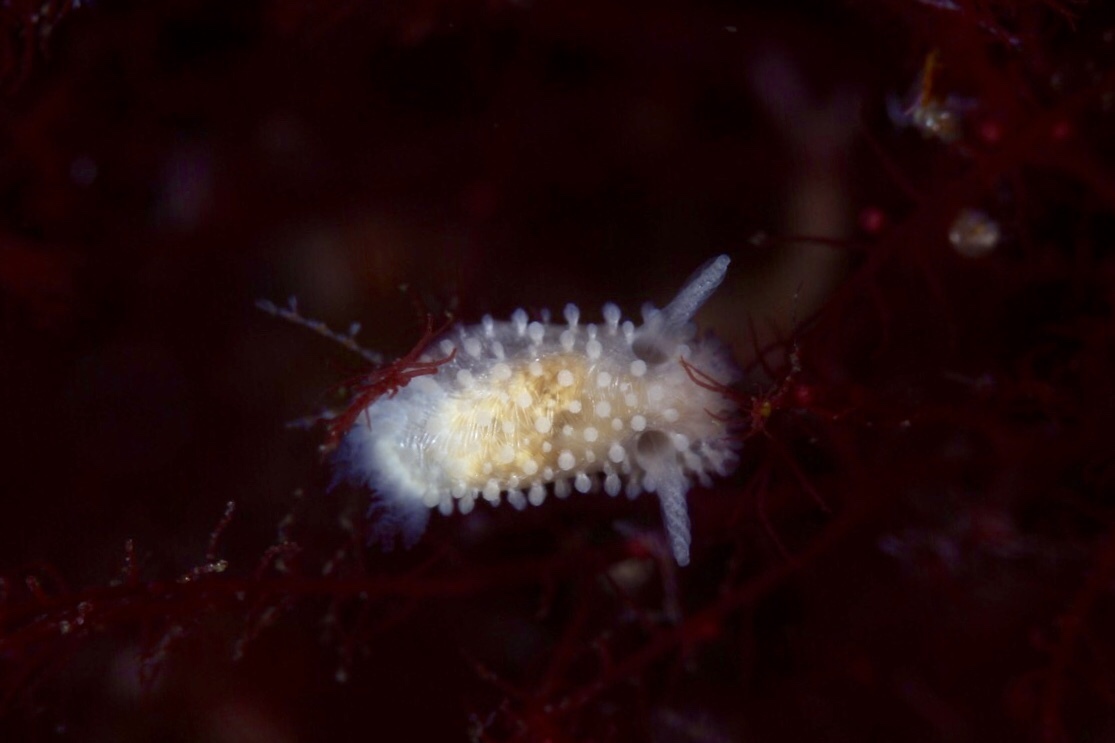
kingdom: Animalia
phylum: Mollusca
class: Gastropoda
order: Nudibranchia
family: Onchidorididae
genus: Onchidoris
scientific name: Onchidoris muricata
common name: Rough doris
